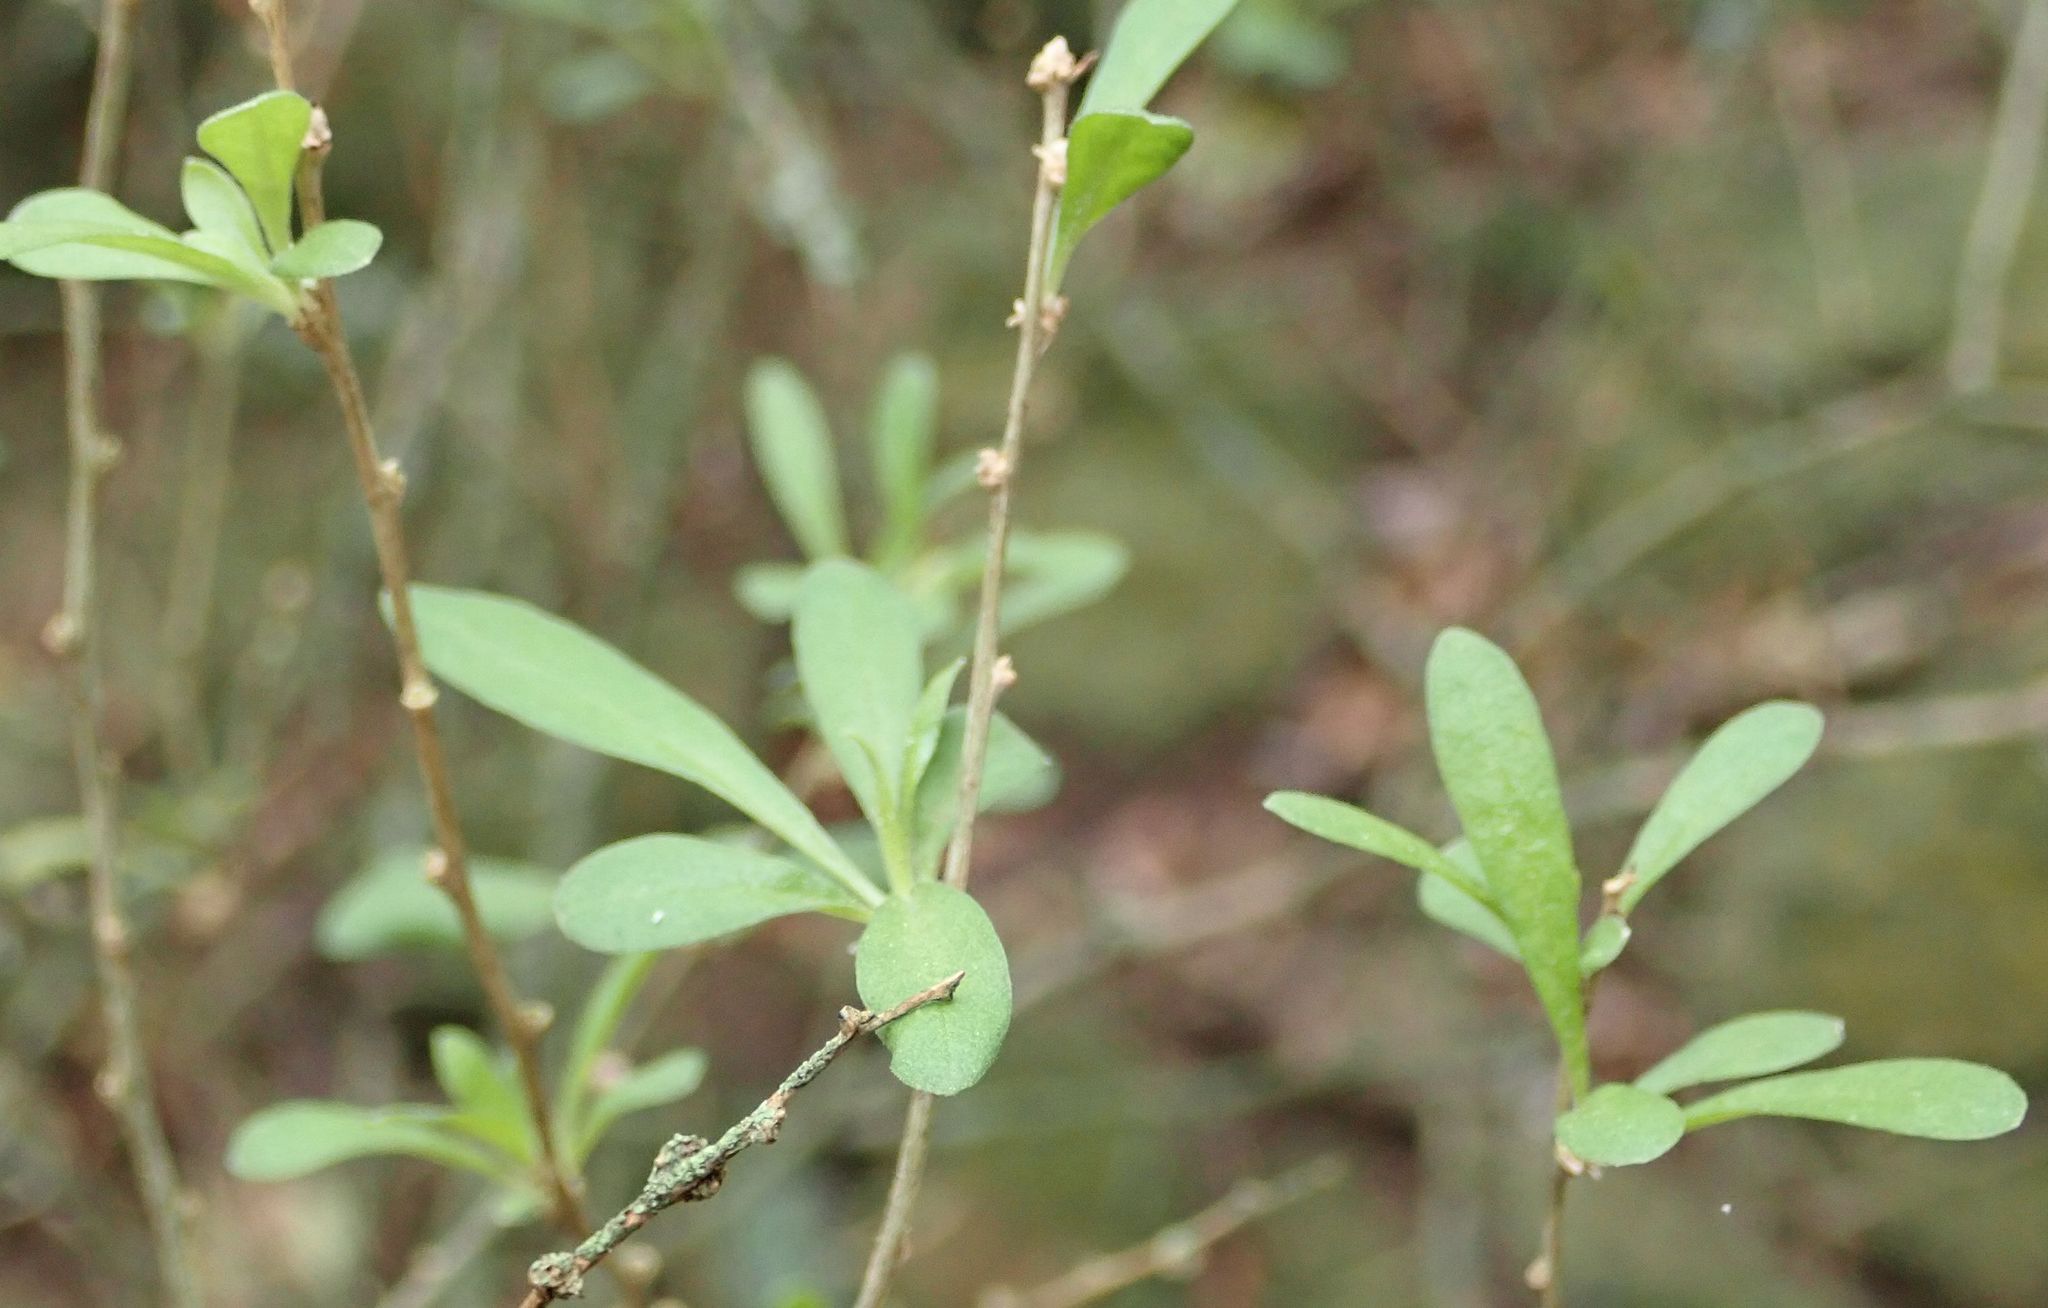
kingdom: Plantae
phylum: Tracheophyta
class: Magnoliopsida
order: Celastrales
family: Celastraceae
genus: Euonymus
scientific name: Euonymus europaeus
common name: Spindle
